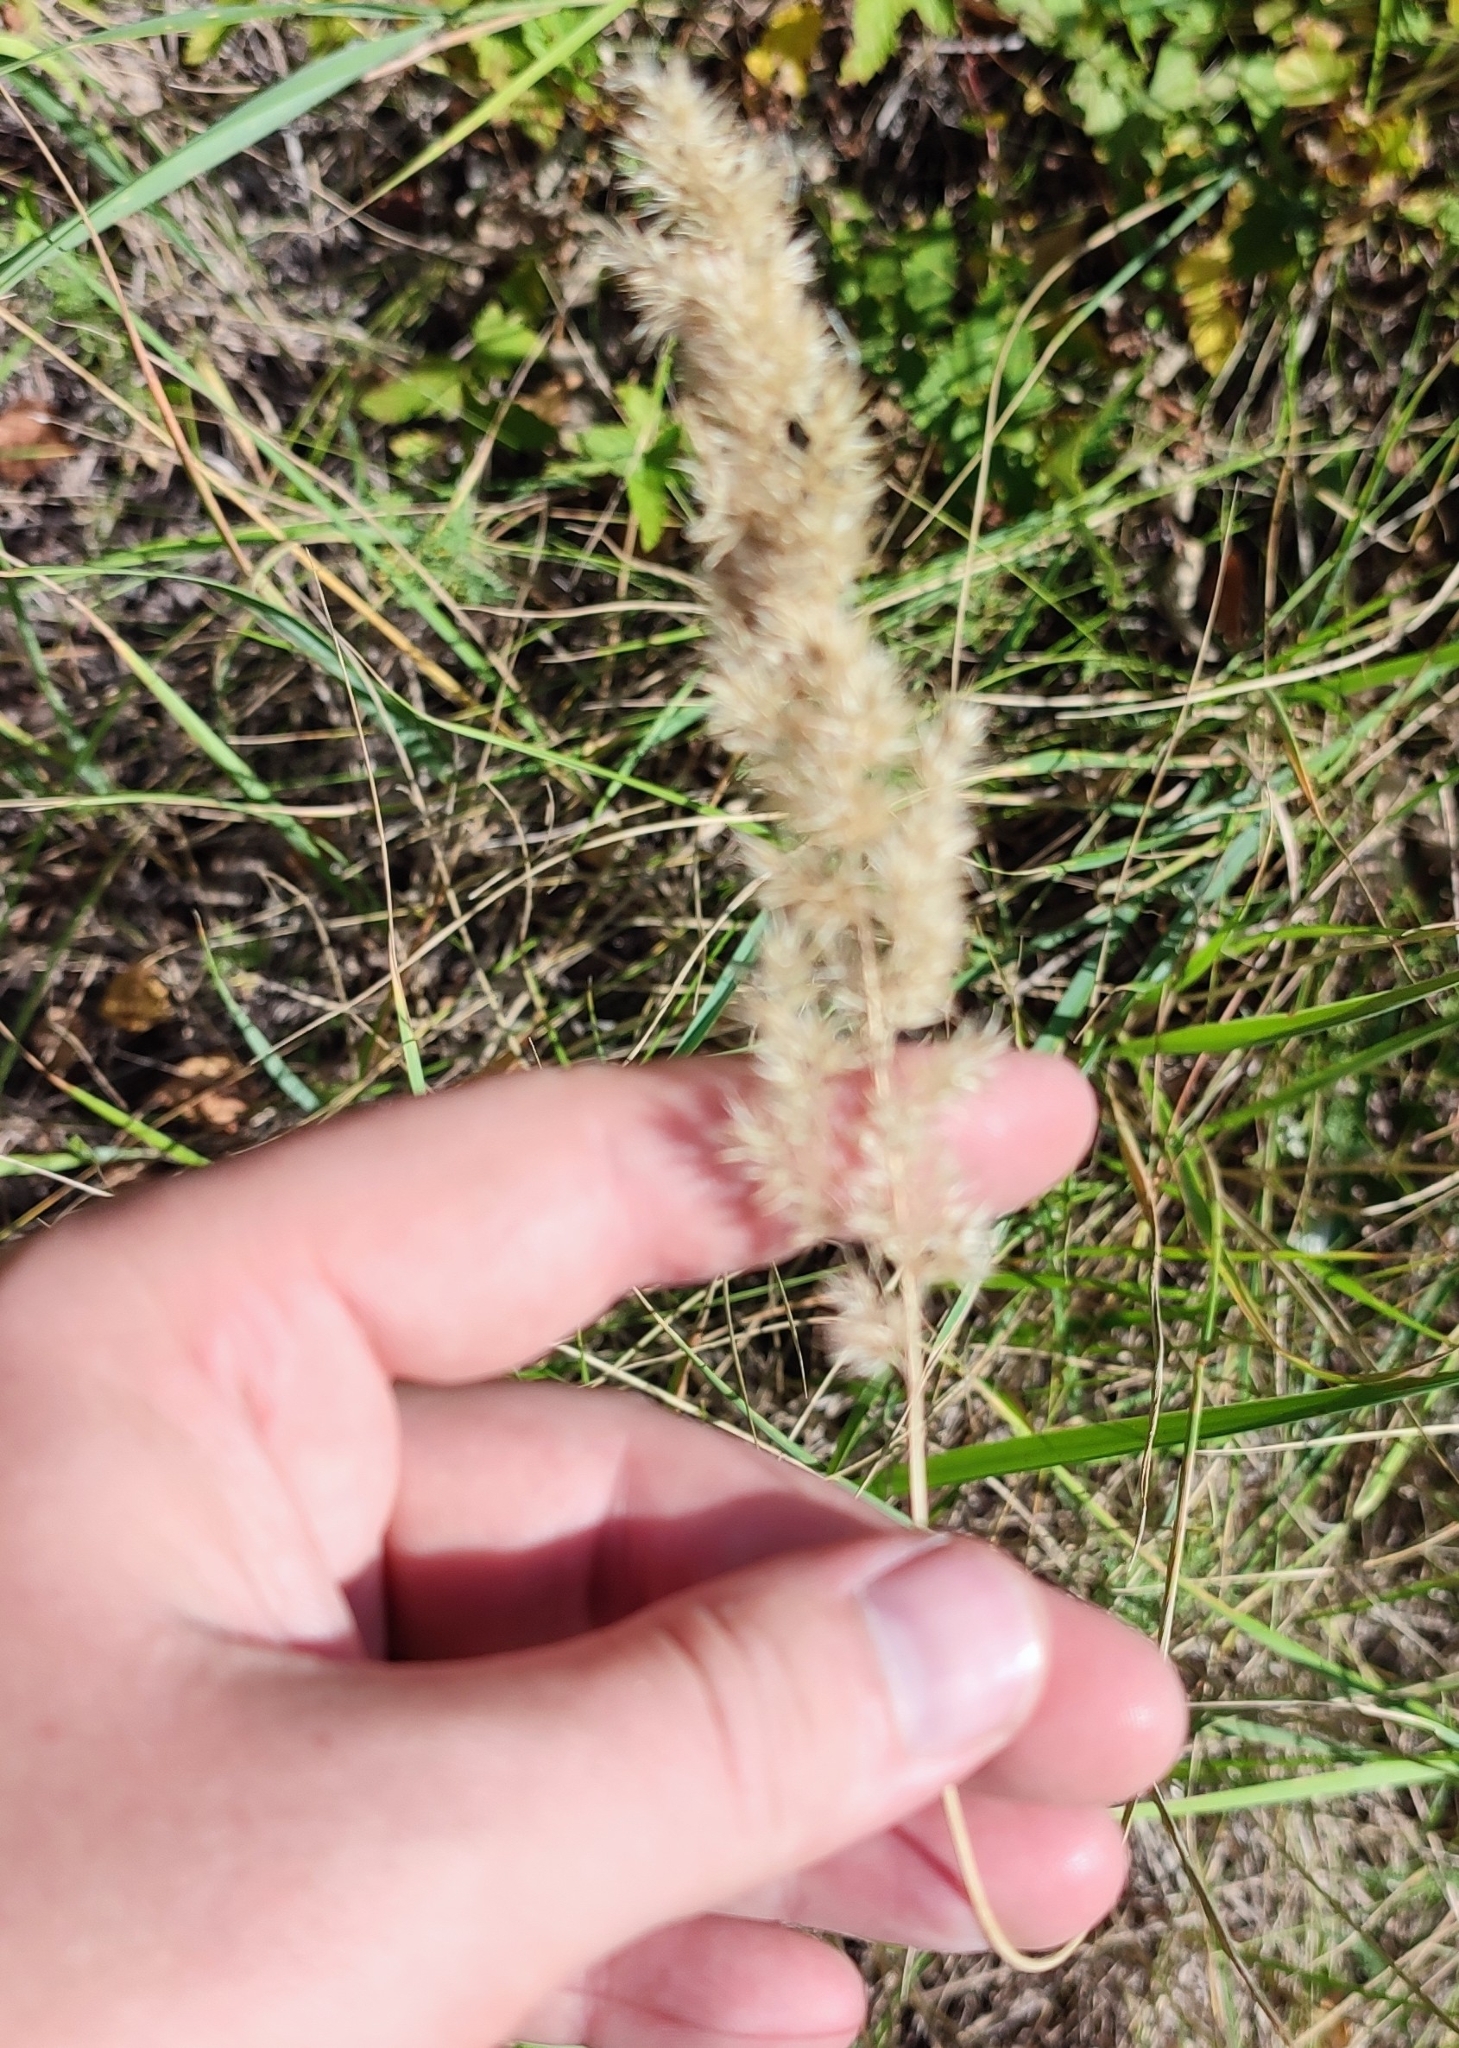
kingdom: Plantae
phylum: Tracheophyta
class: Liliopsida
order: Poales
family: Poaceae
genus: Calamagrostis
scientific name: Calamagrostis epigejos
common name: Wood small-reed
